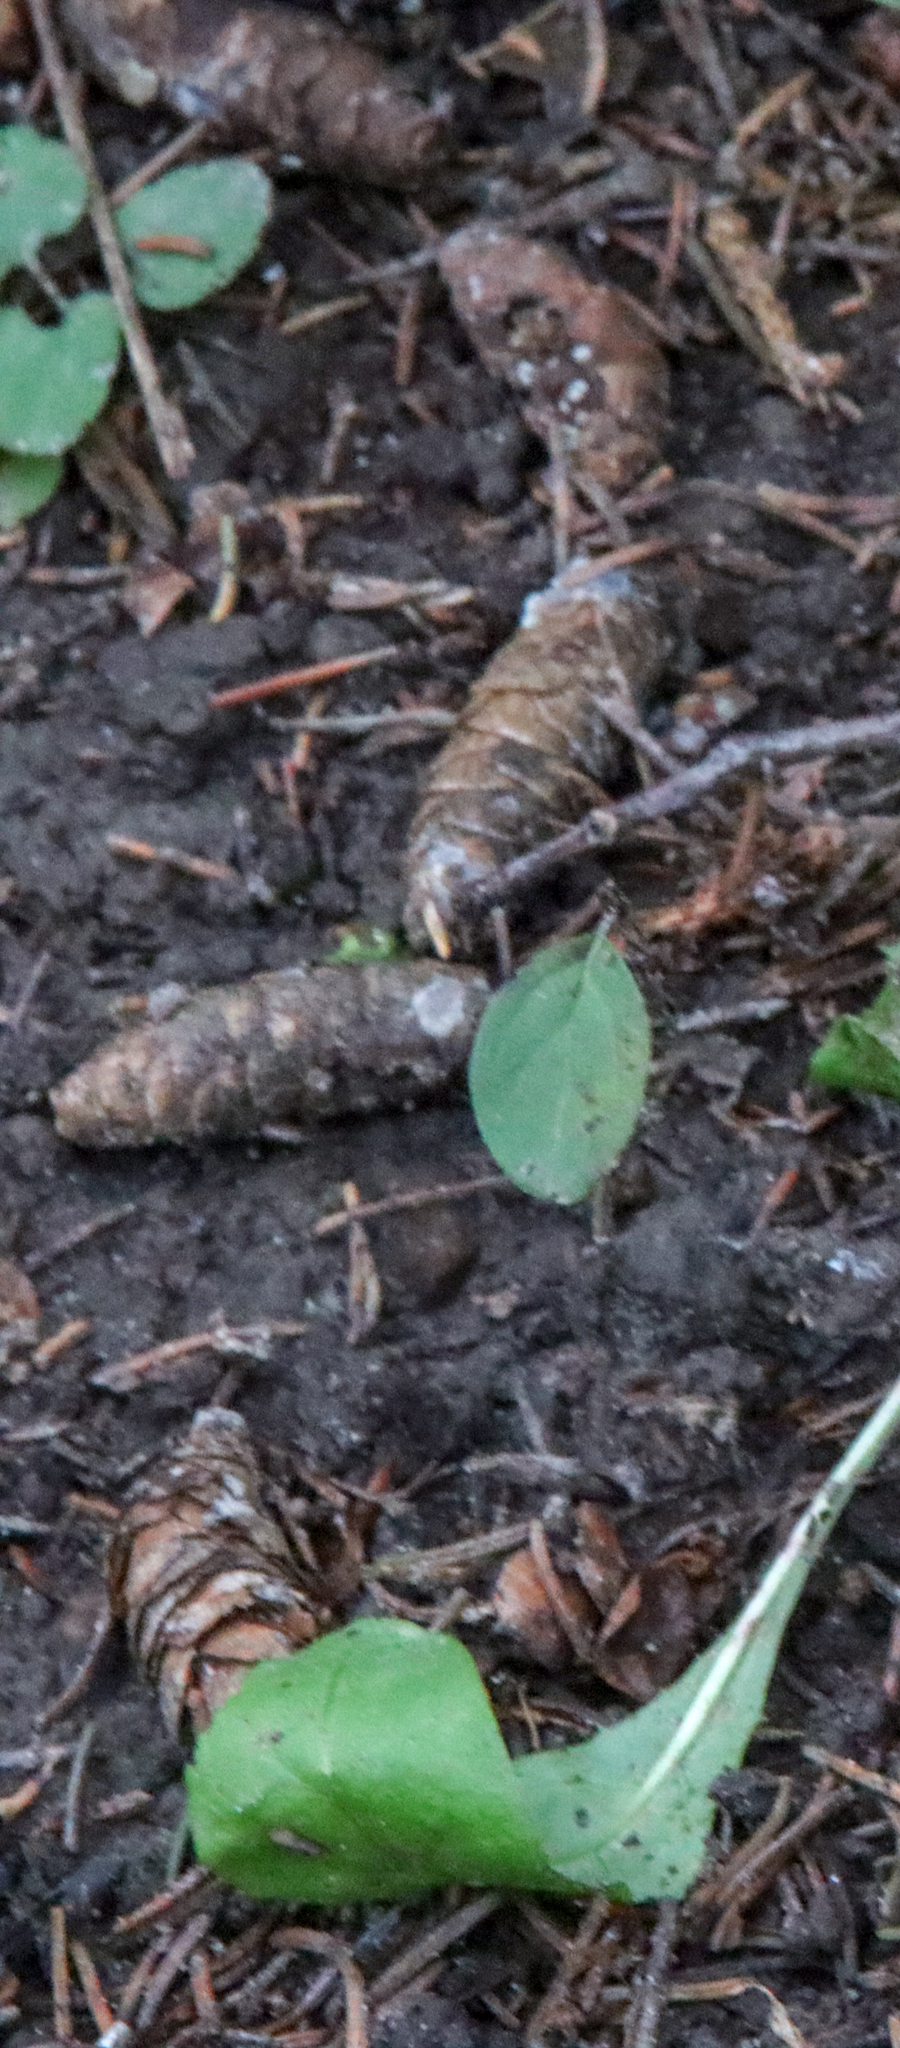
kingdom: Plantae
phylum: Tracheophyta
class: Pinopsida
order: Pinales
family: Pinaceae
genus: Picea
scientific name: Picea glauca
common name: White spruce
